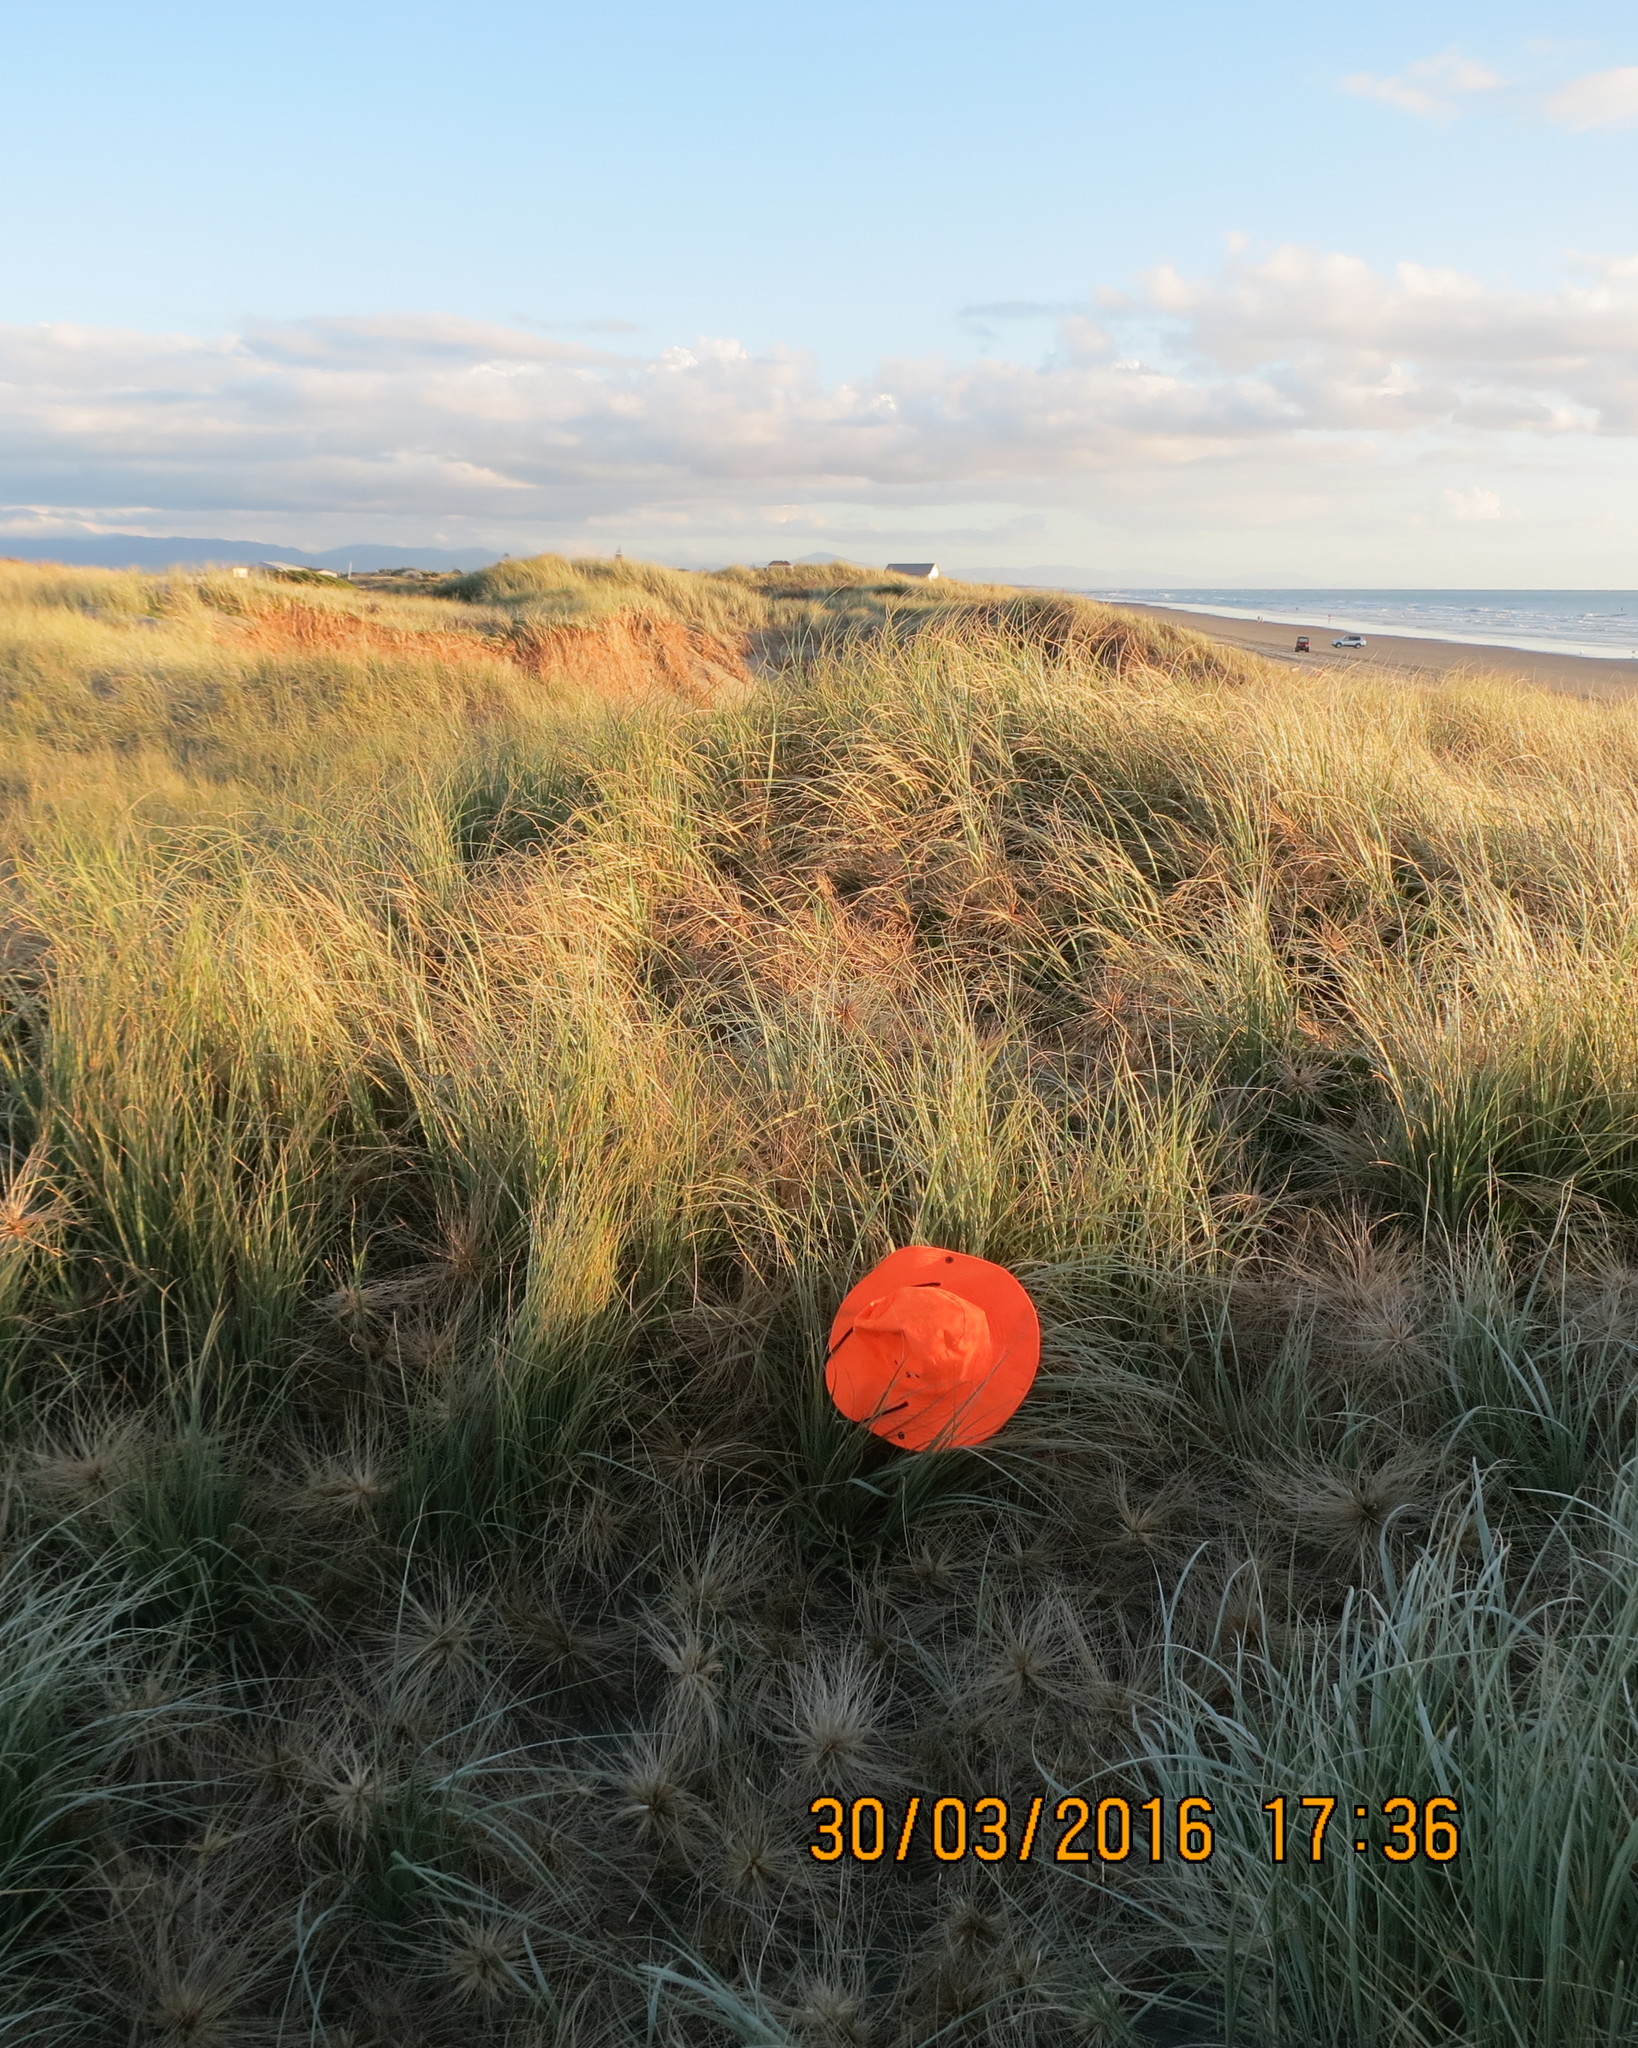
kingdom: Animalia
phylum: Arthropoda
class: Arachnida
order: Araneae
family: Theridiidae
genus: Steatoda
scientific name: Steatoda lepida
